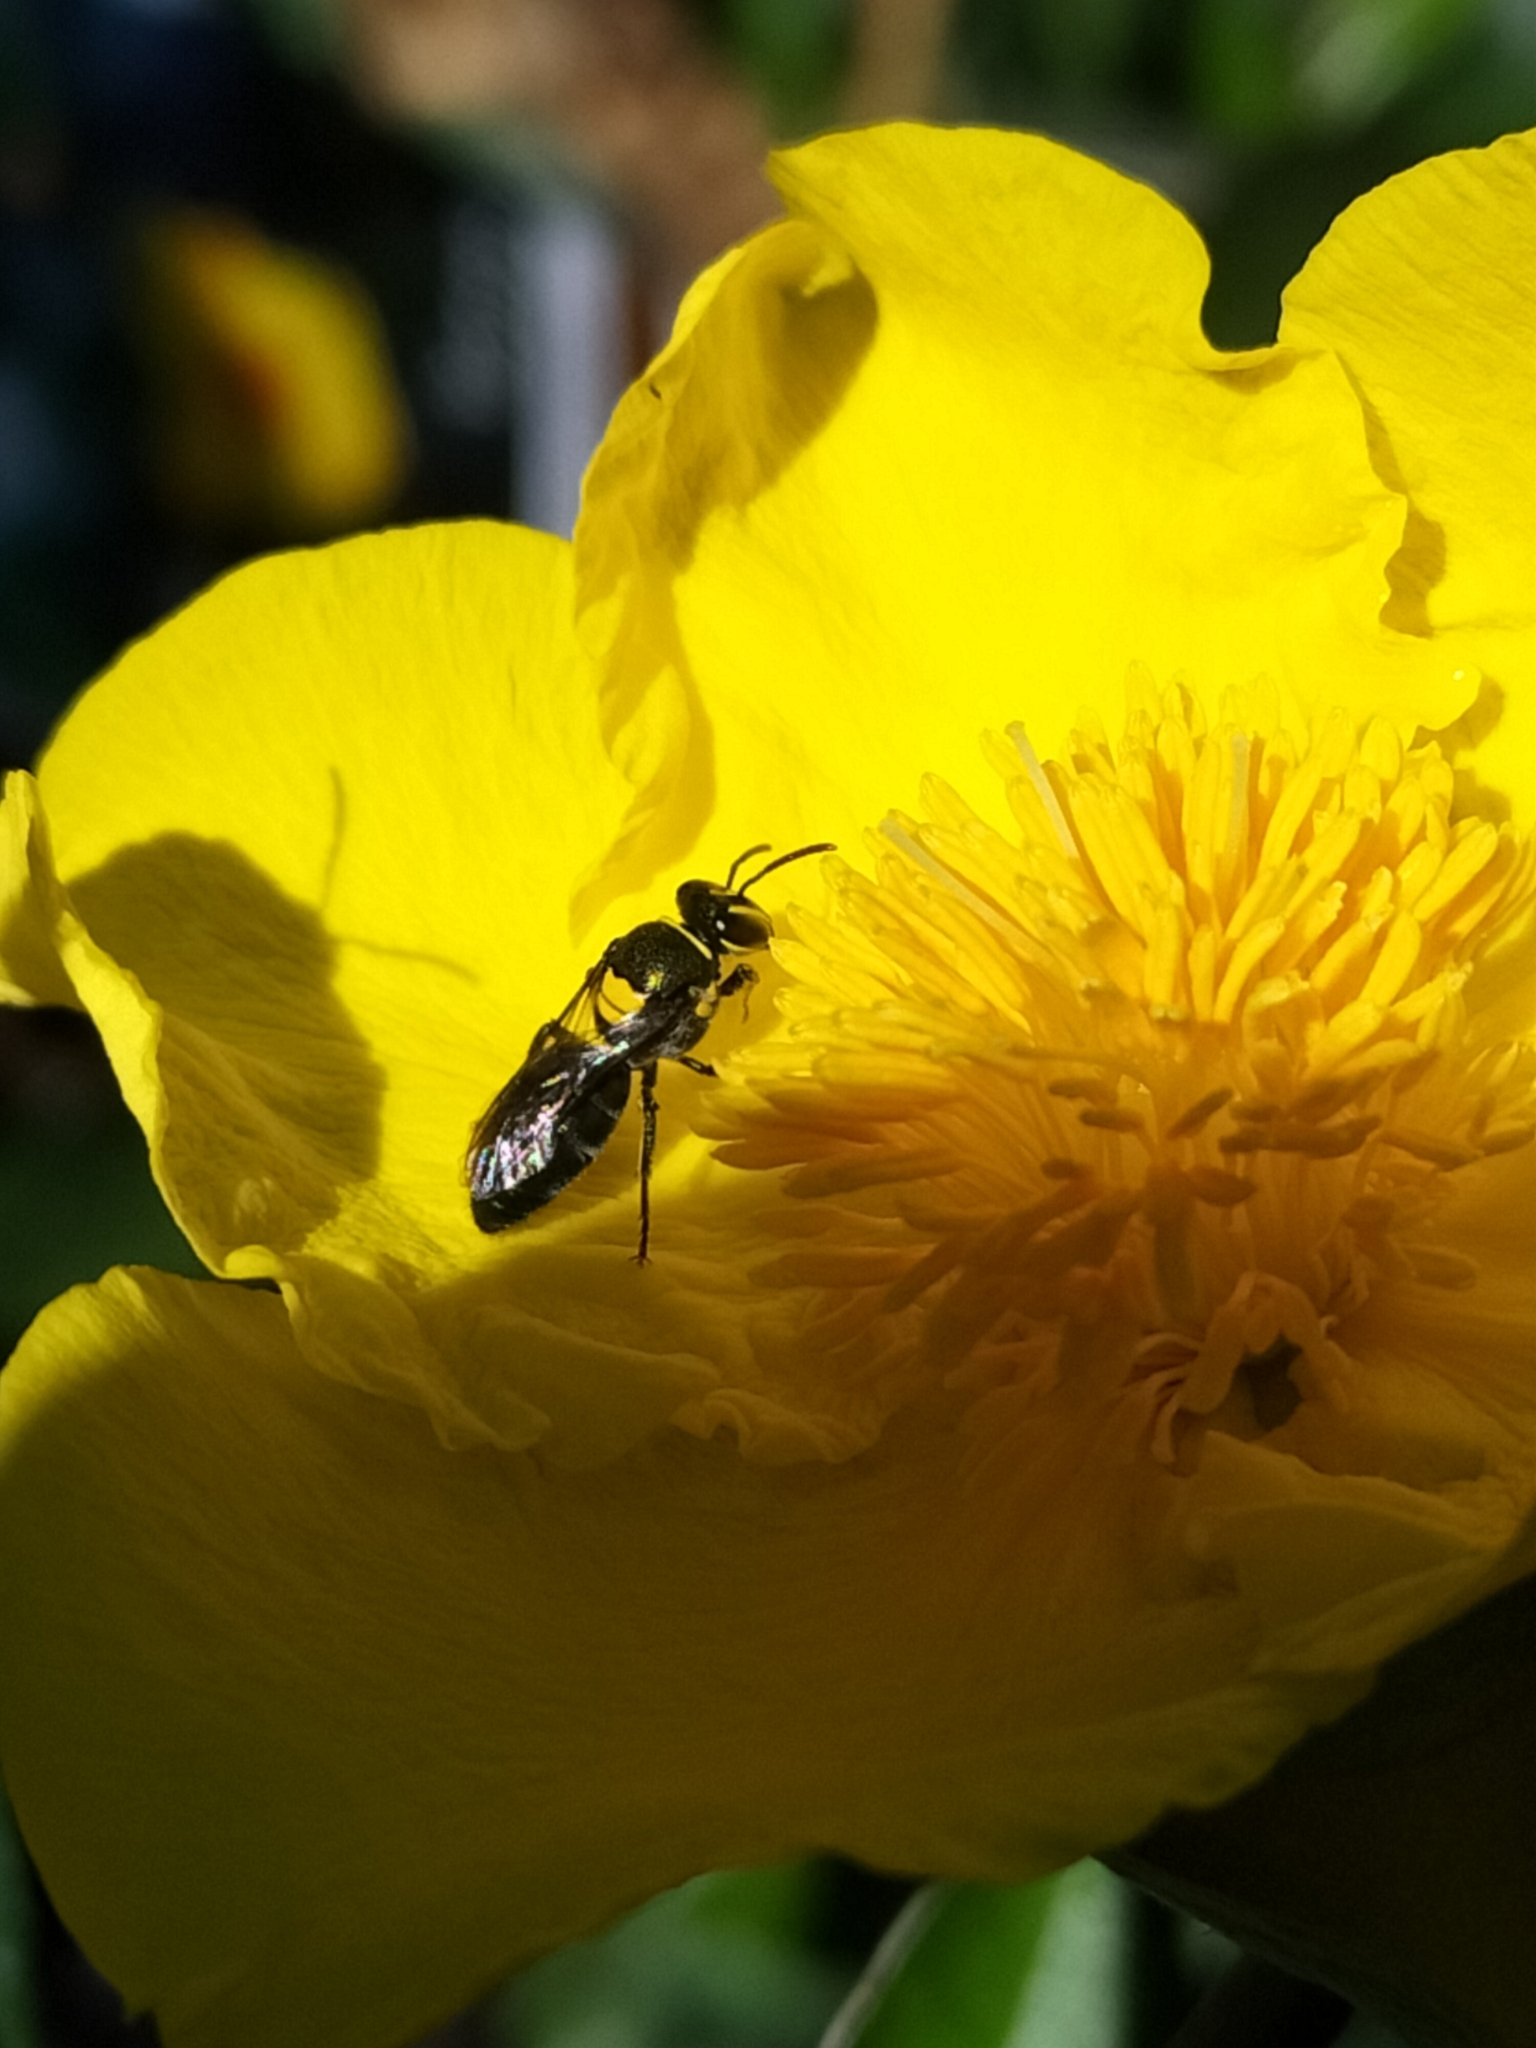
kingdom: Animalia
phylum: Arthropoda
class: Insecta
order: Hymenoptera
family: Colletidae
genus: Palaeorhiza
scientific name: Palaeorhiza parallela
